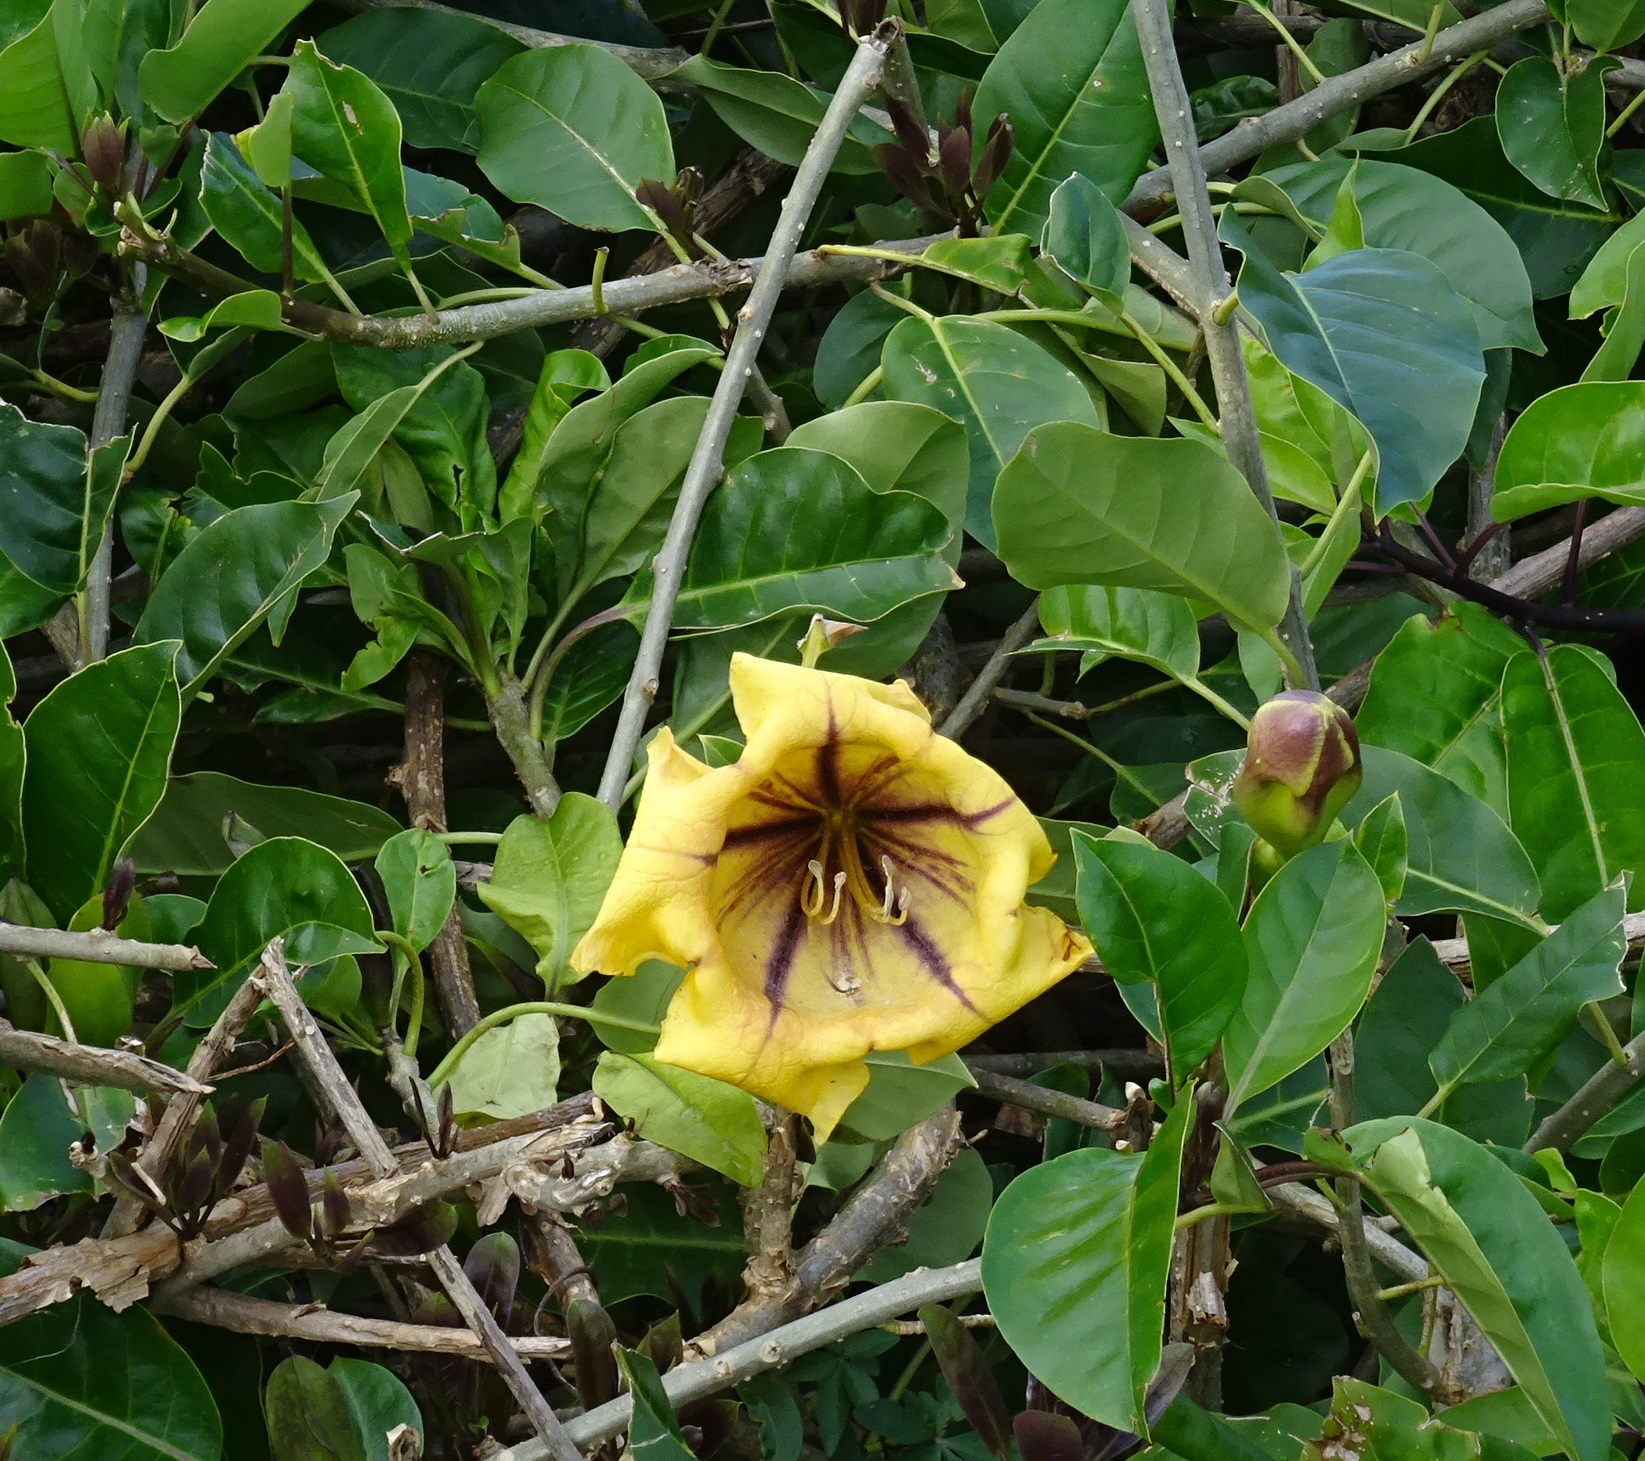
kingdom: Plantae
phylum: Tracheophyta
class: Magnoliopsida
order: Solanales
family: Solanaceae
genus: Solandra
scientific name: Solandra maxima
